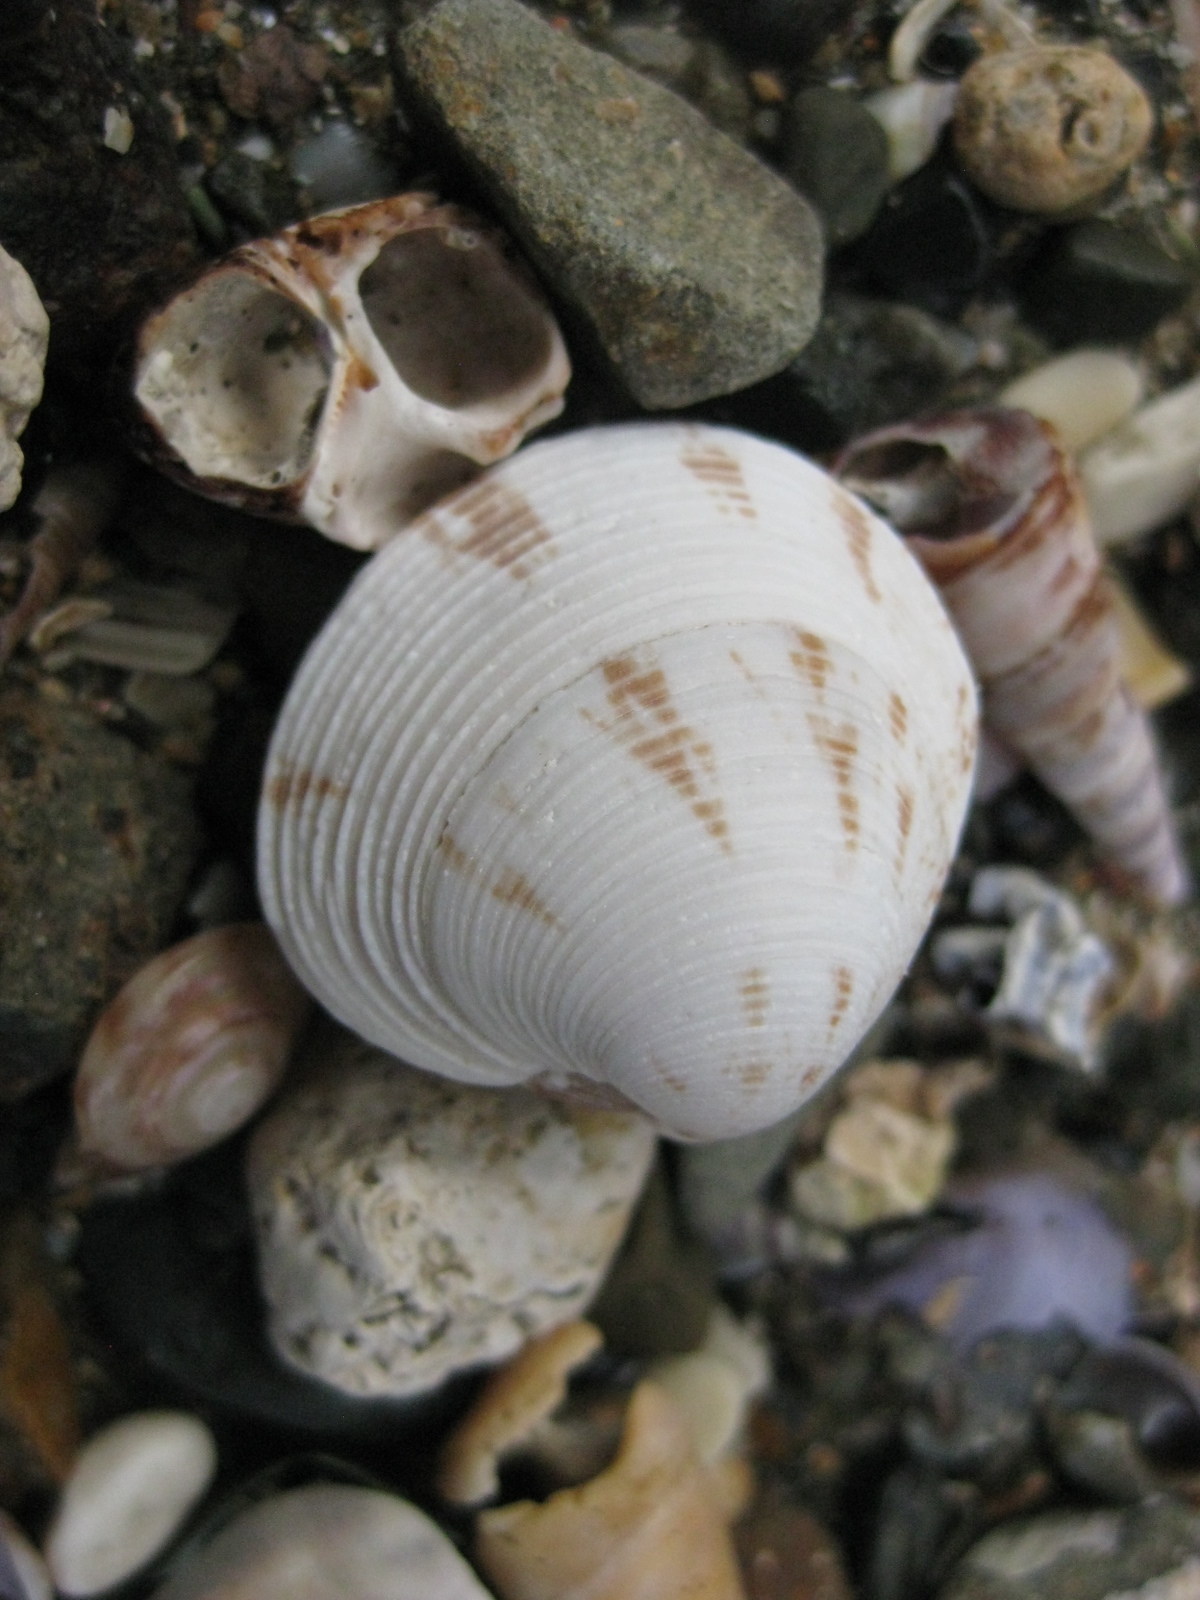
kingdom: Animalia
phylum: Mollusca
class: Bivalvia
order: Venerida
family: Veneridae
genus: Tawera
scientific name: Tawera spissa
